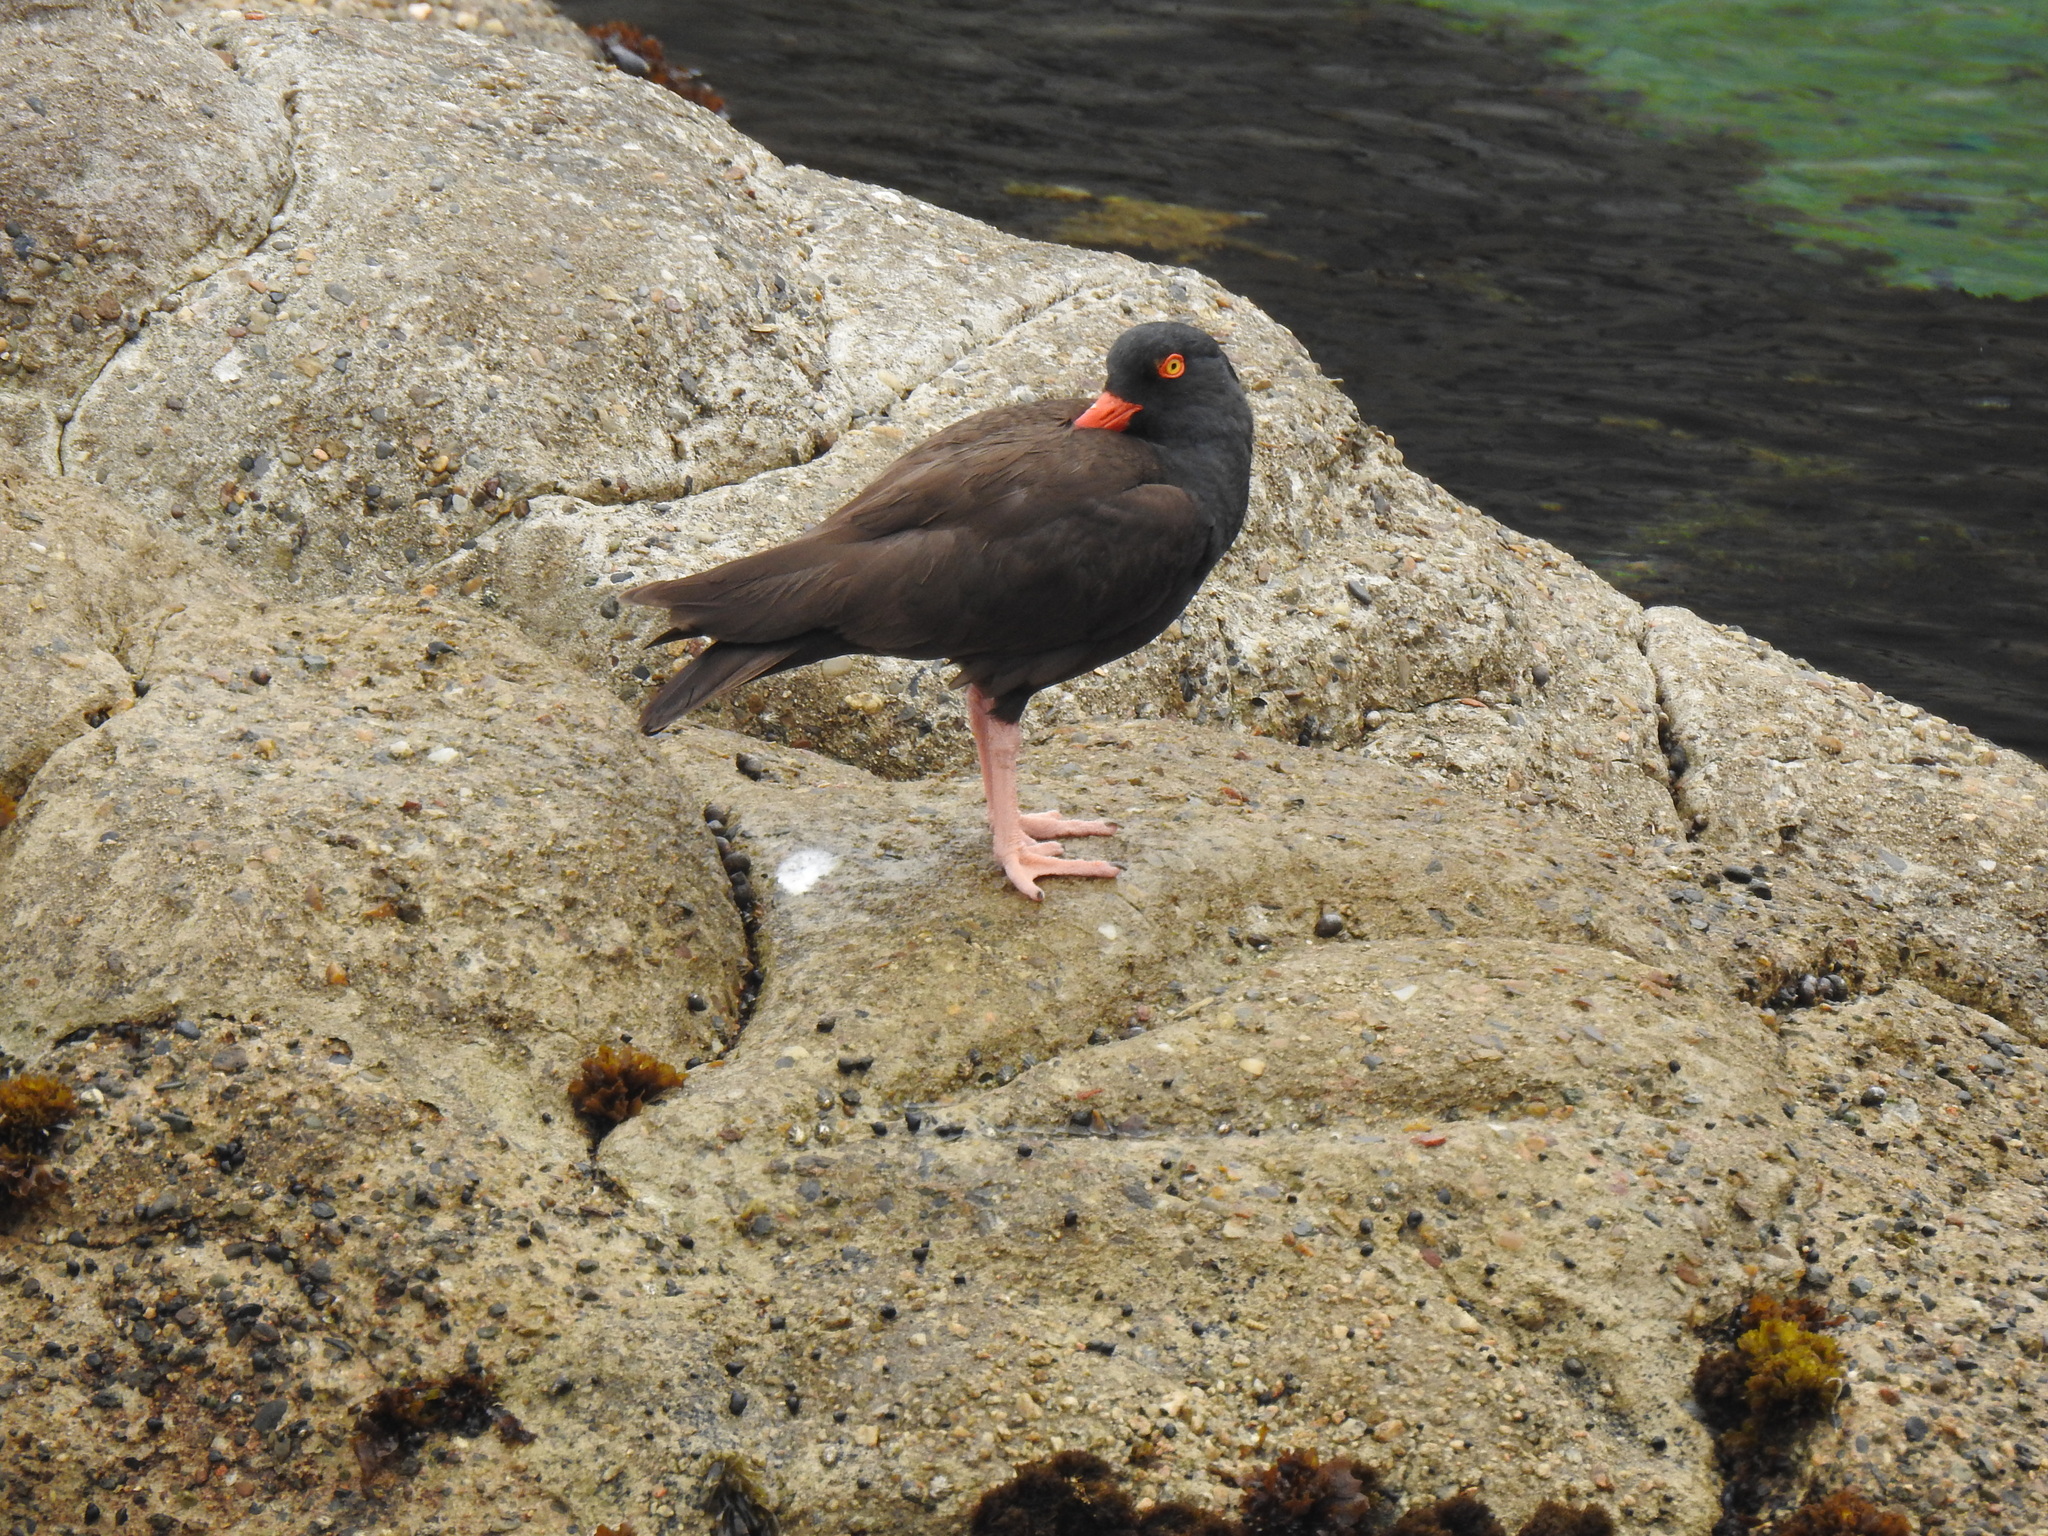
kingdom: Animalia
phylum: Chordata
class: Aves
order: Charadriiformes
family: Haematopodidae
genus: Haematopus
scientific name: Haematopus bachmani
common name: Black oystercatcher
